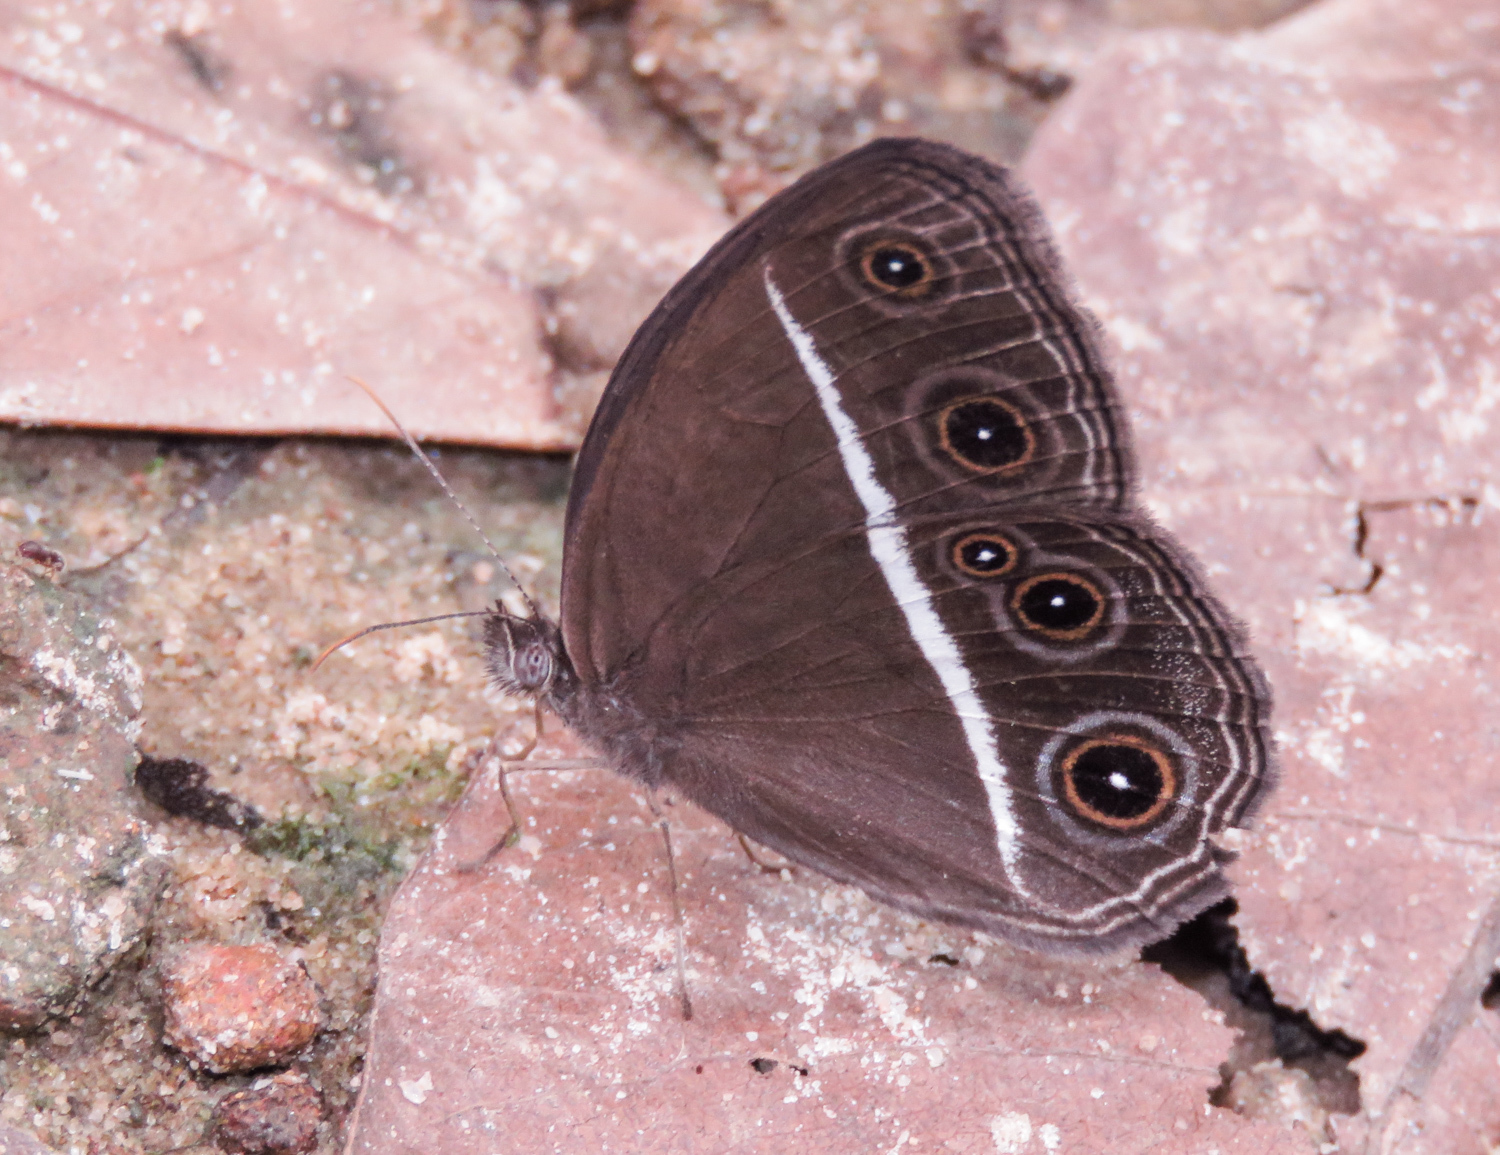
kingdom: Animalia
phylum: Arthropoda
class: Insecta
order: Lepidoptera
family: Nymphalidae
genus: Orsotriaena
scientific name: Orsotriaena medus
